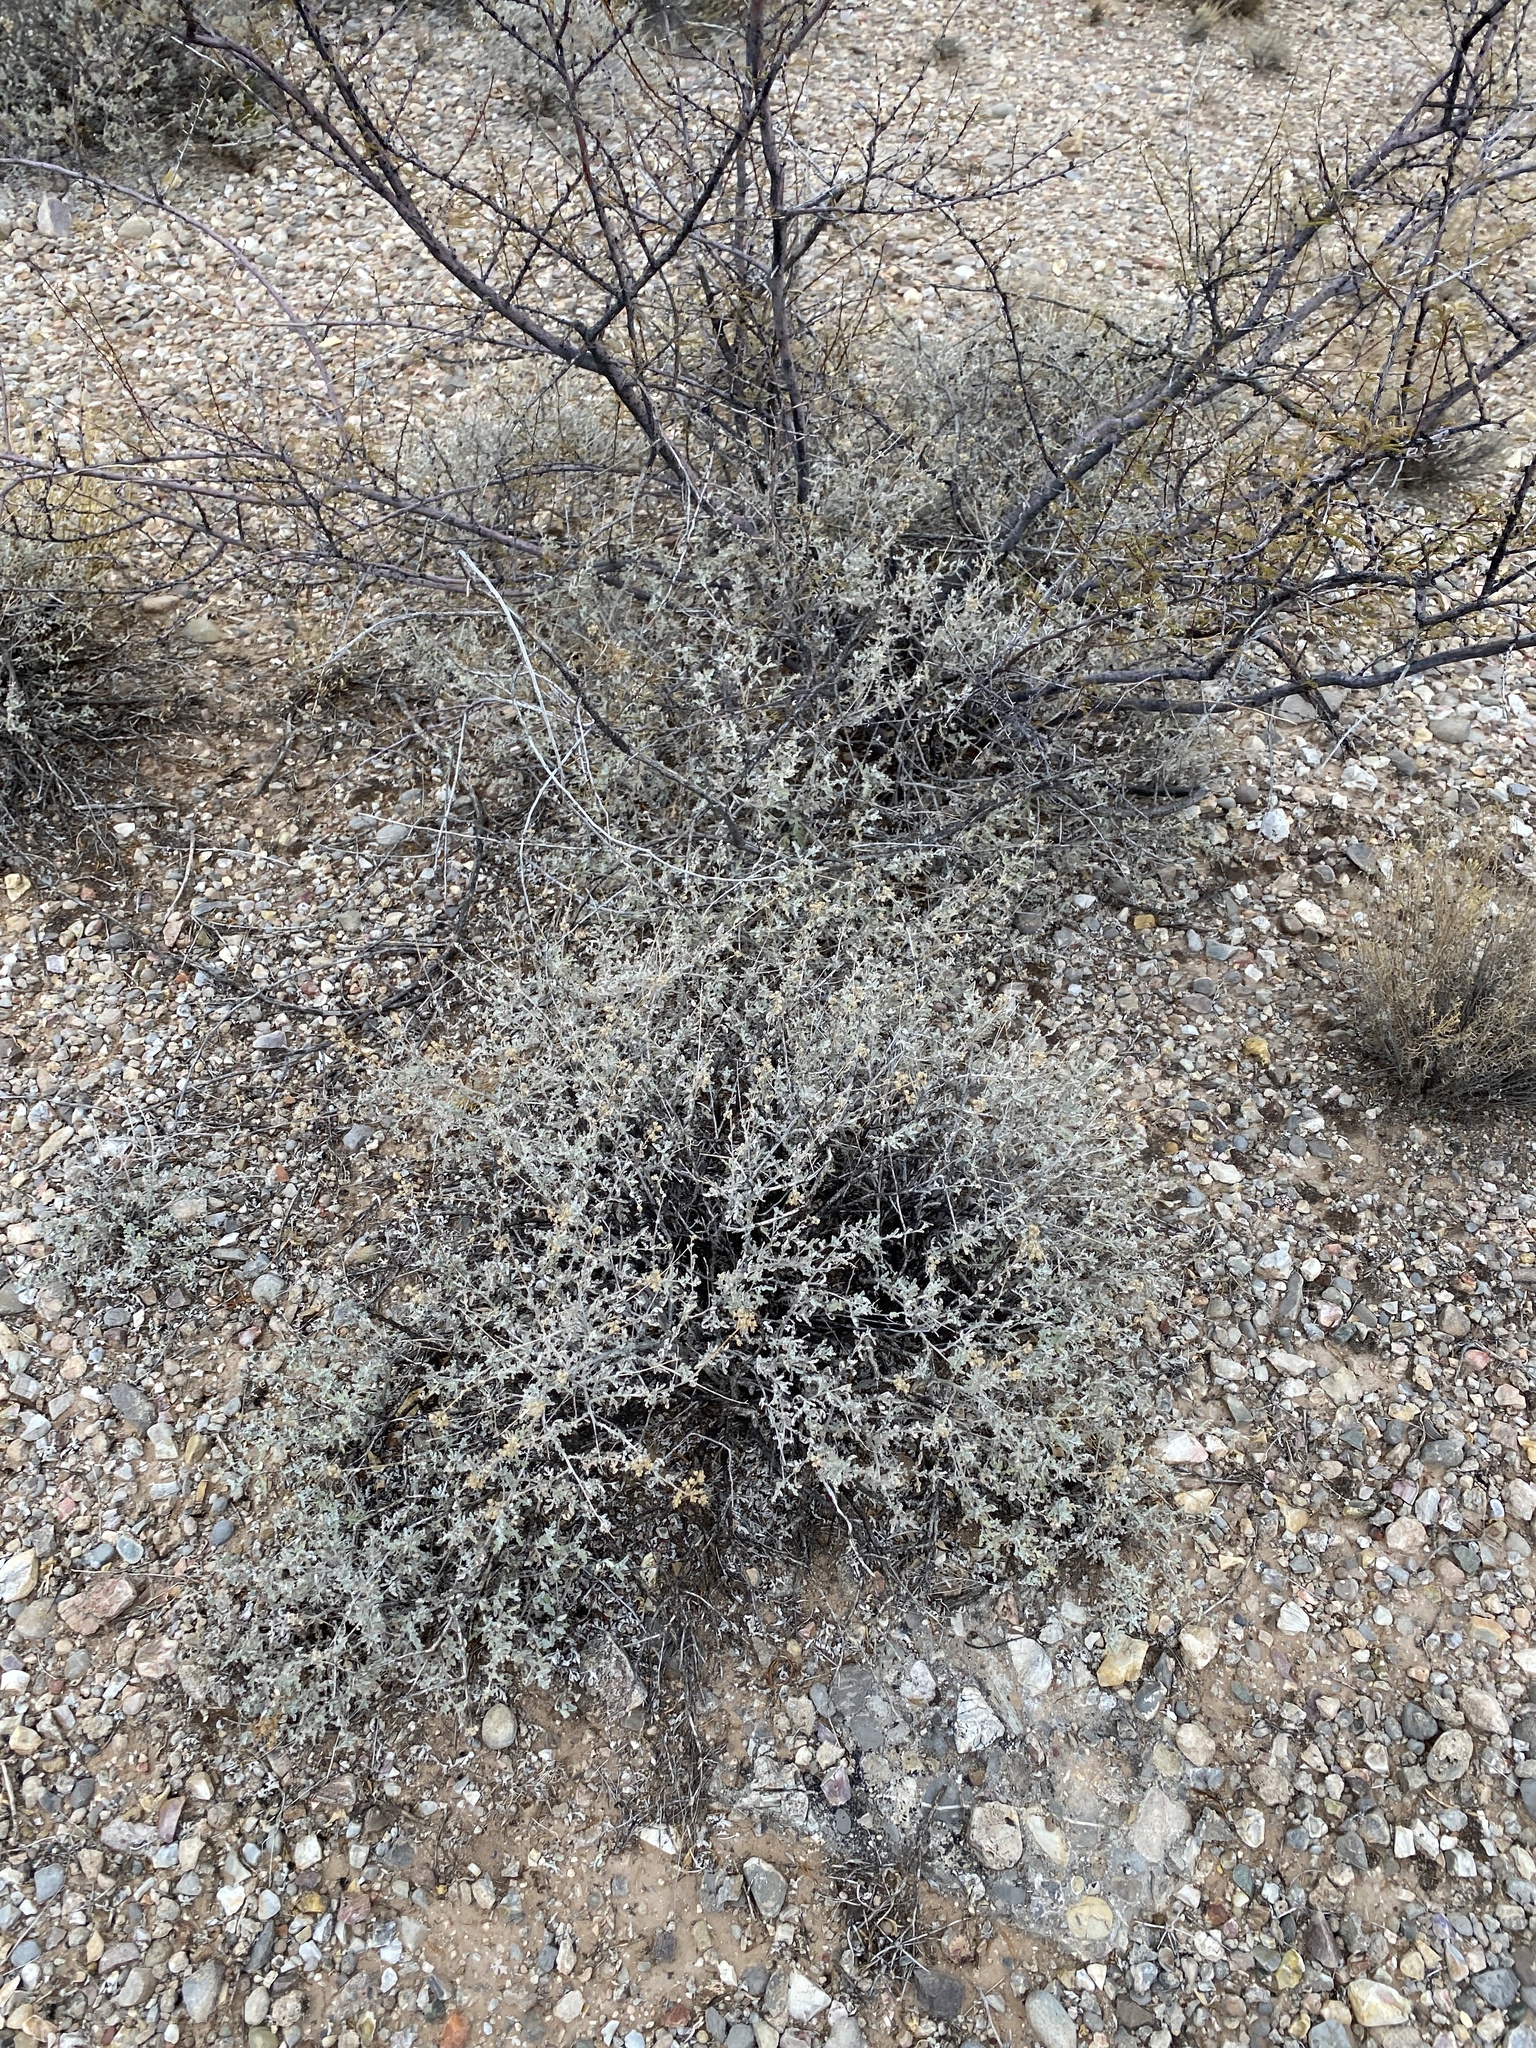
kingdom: Plantae
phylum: Tracheophyta
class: Magnoliopsida
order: Asterales
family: Asteraceae
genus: Parthenium
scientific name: Parthenium incanum
